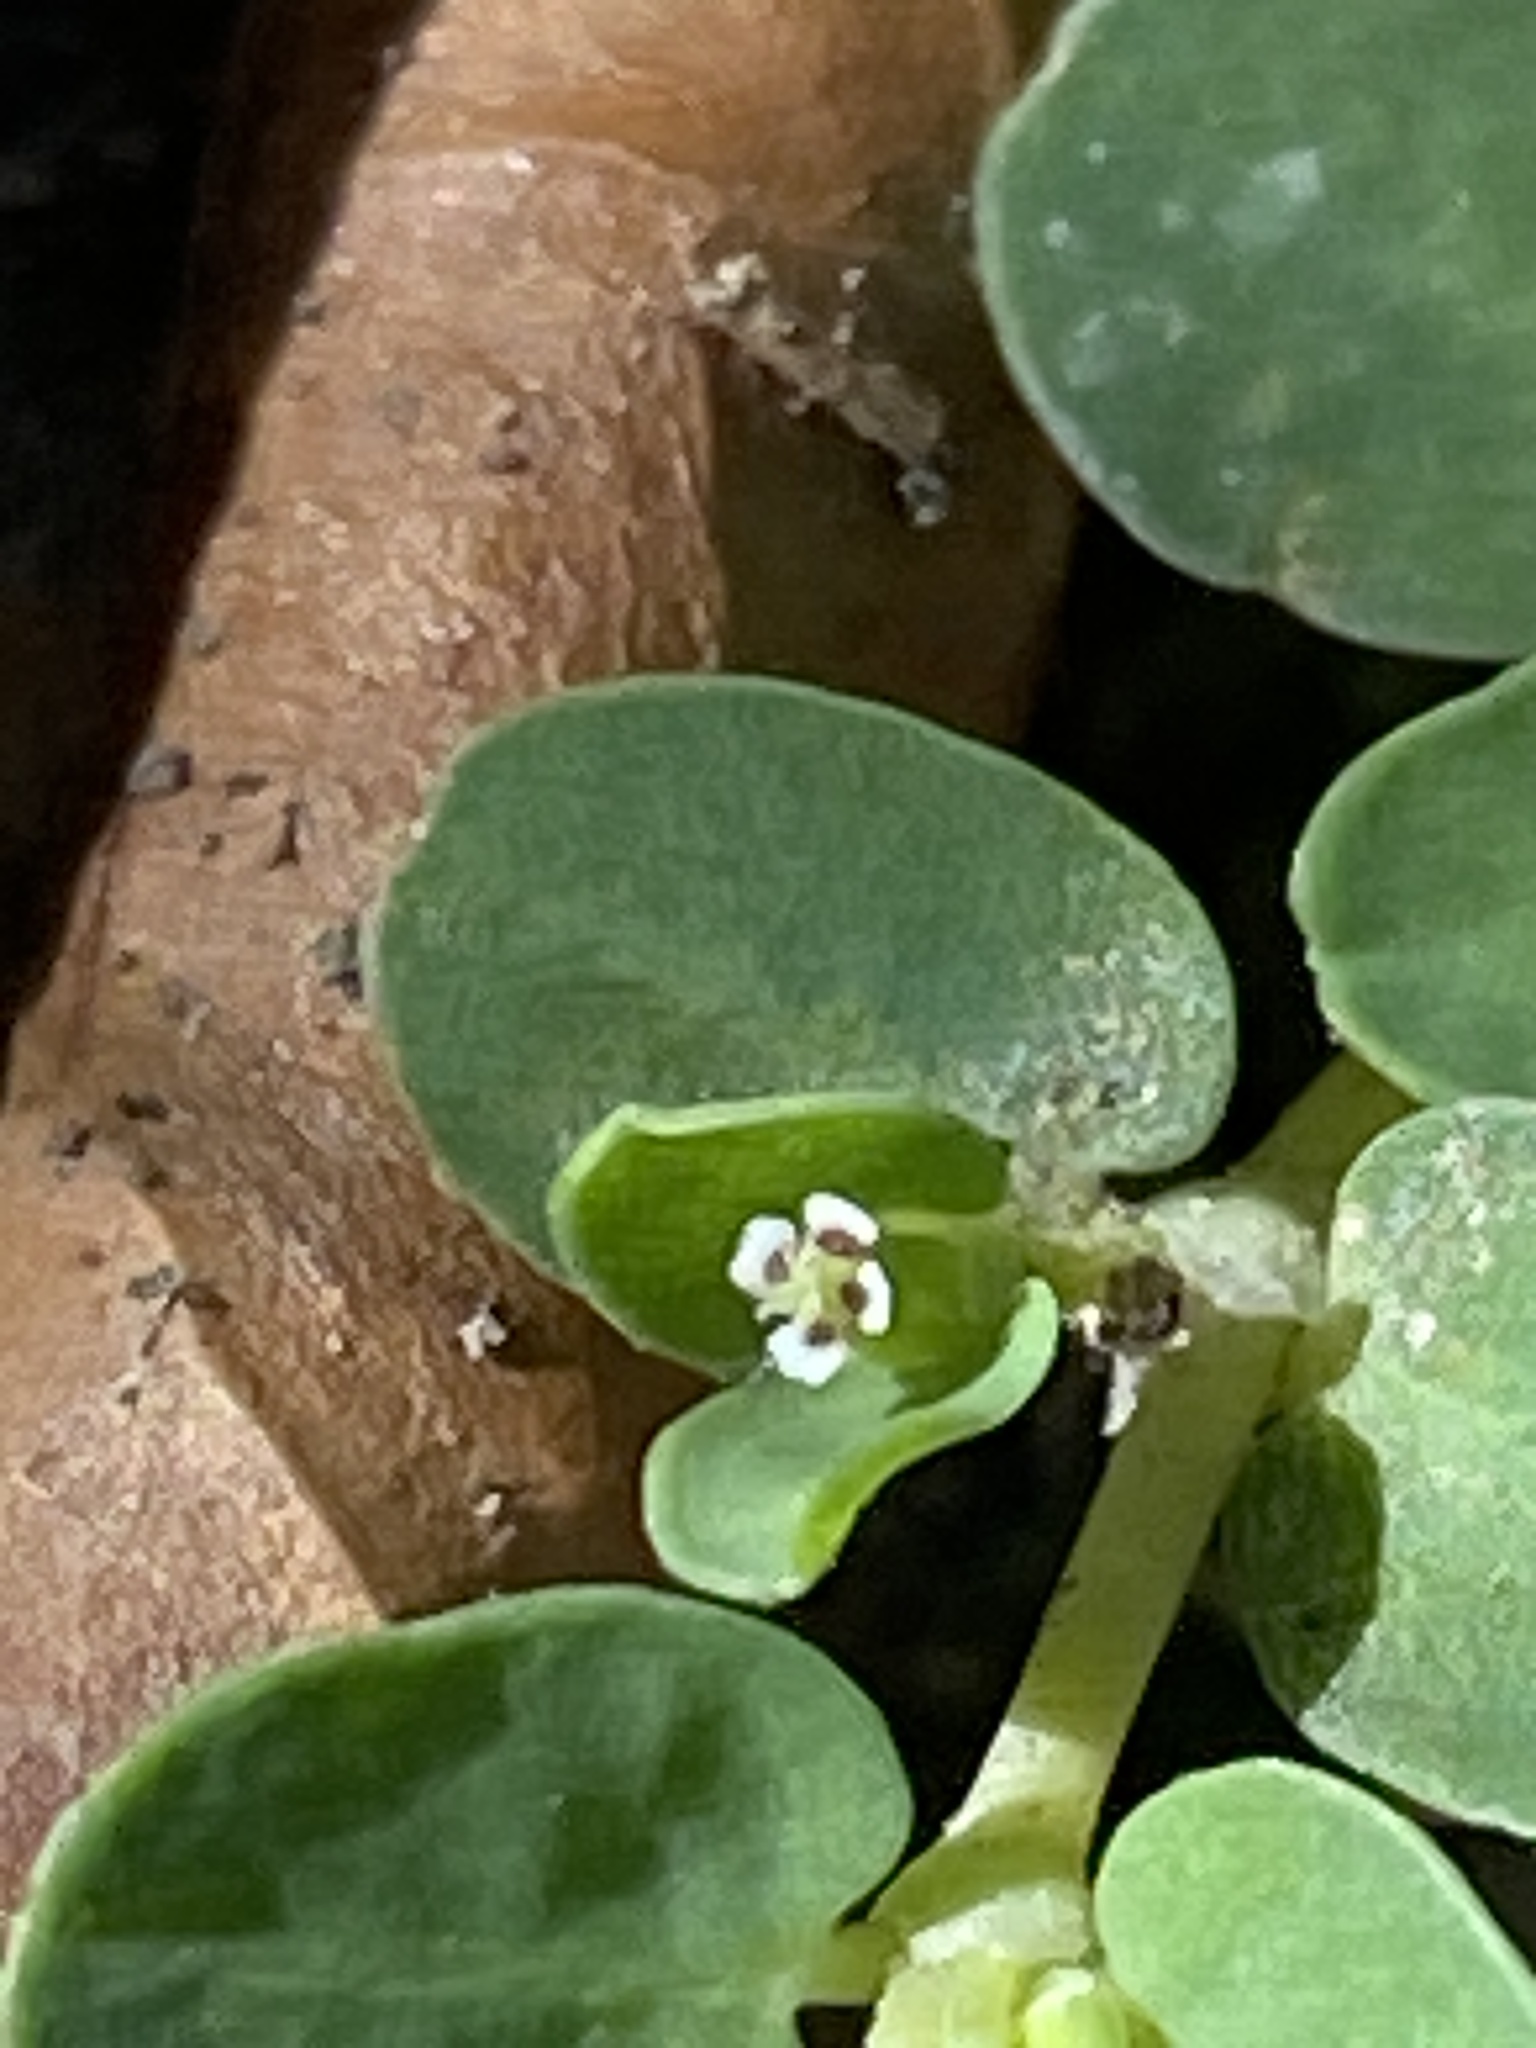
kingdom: Plantae
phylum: Tracheophyta
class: Magnoliopsida
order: Malpighiales
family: Euphorbiaceae
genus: Euphorbia
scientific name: Euphorbia serpens
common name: Matted sandmat
